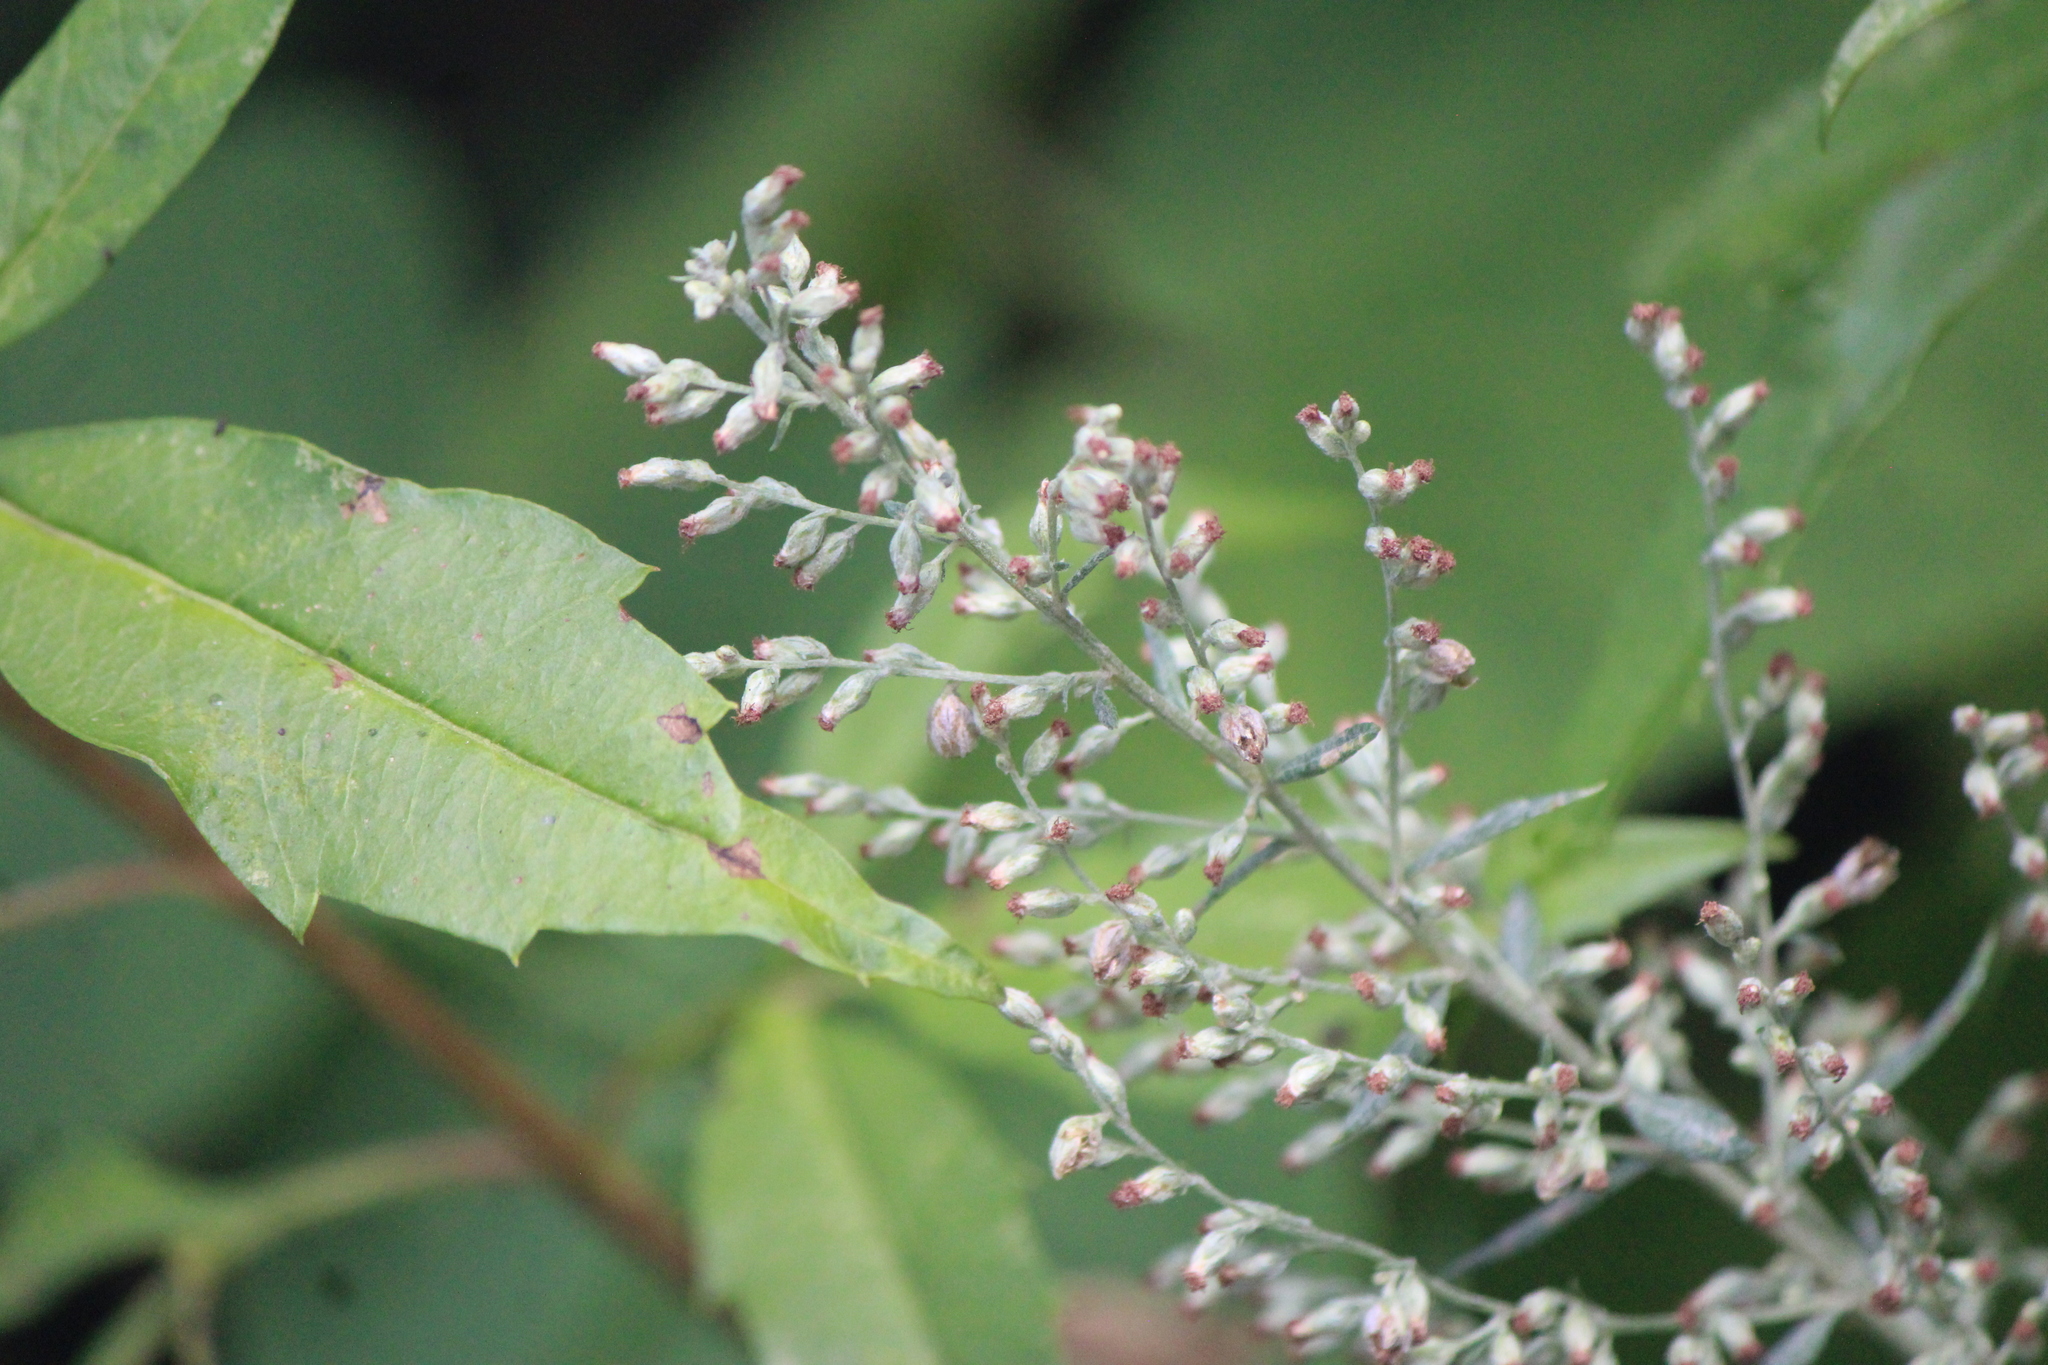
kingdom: Plantae
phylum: Tracheophyta
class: Magnoliopsida
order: Asterales
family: Asteraceae
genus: Artemisia
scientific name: Artemisia ludoviciana
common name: Western mugwort
